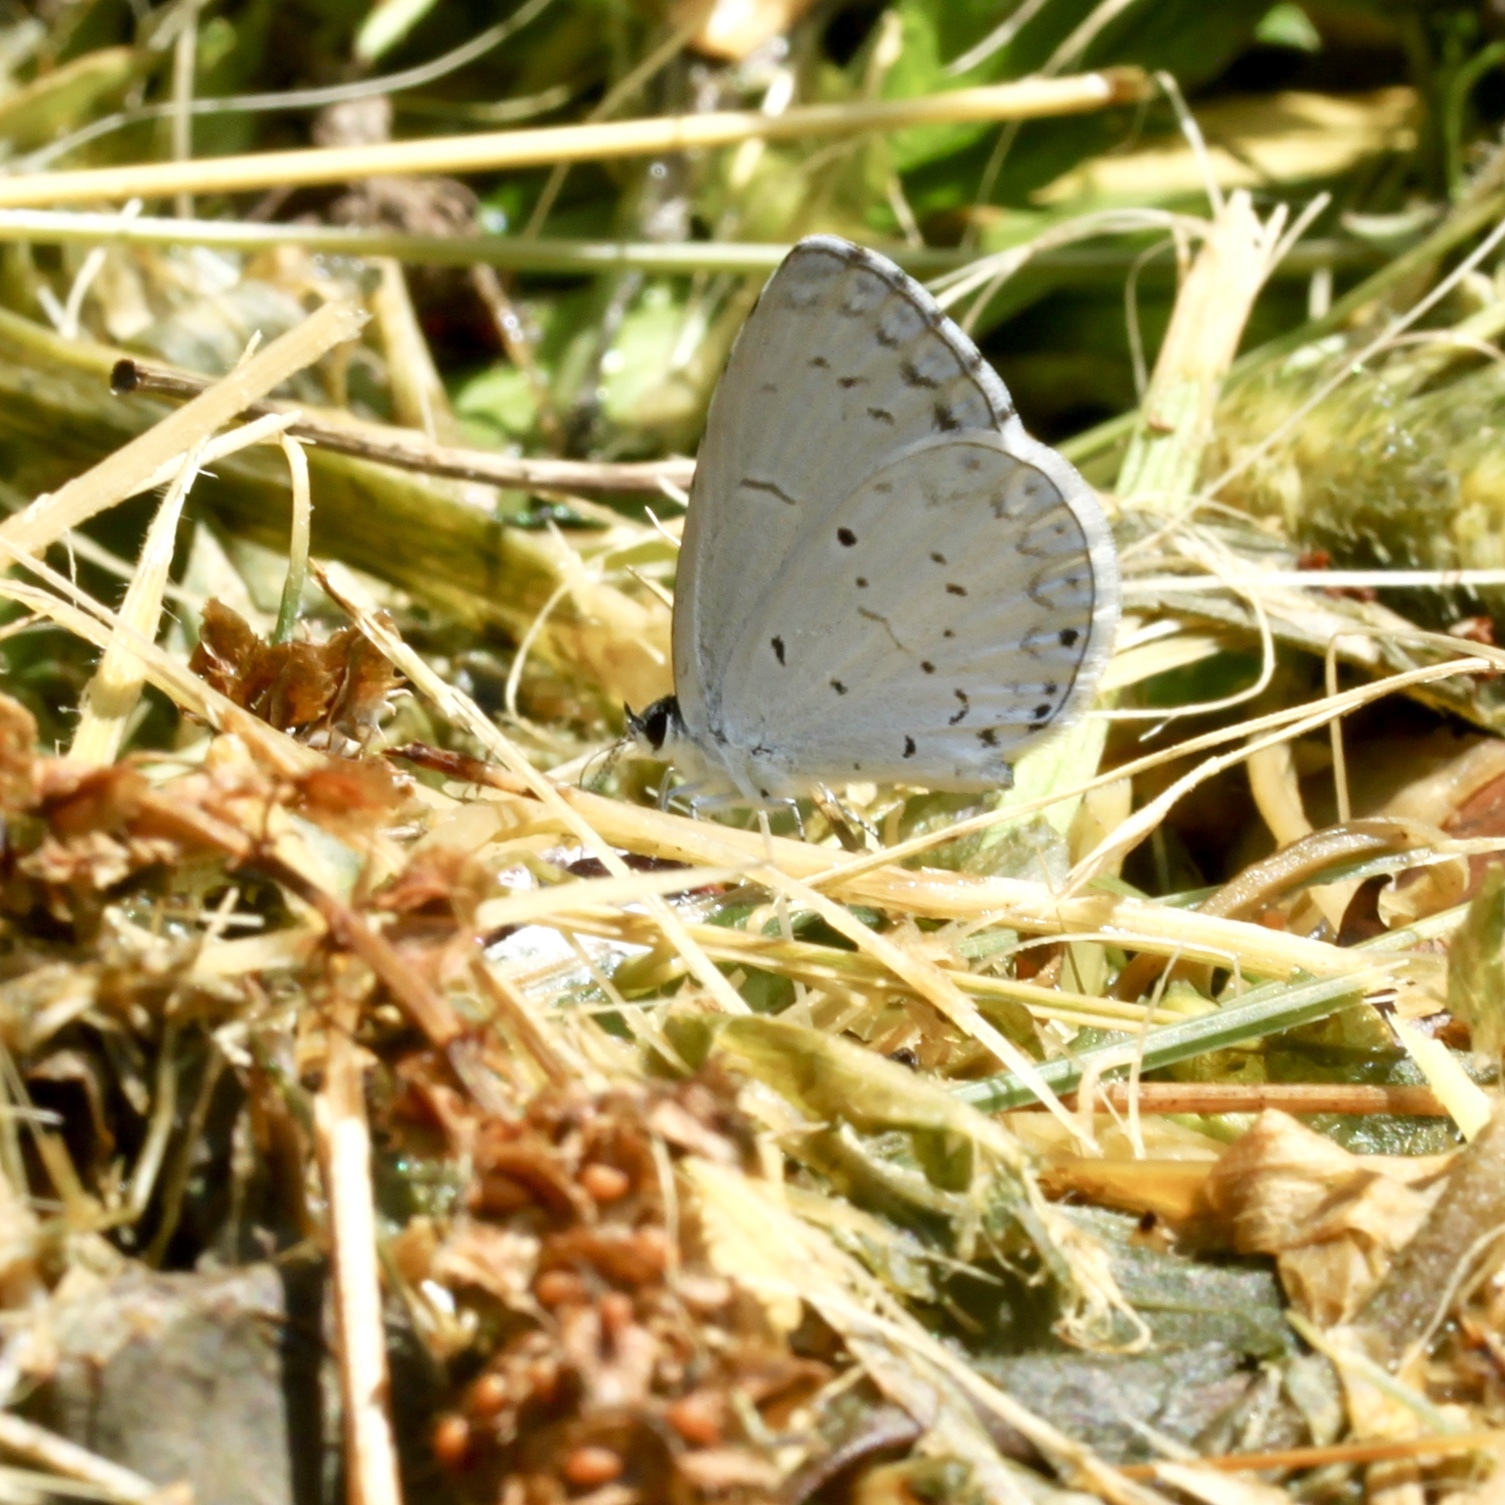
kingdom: Animalia
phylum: Arthropoda
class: Insecta
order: Lepidoptera
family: Lycaenidae
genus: Cyaniris
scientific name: Cyaniris neglecta
